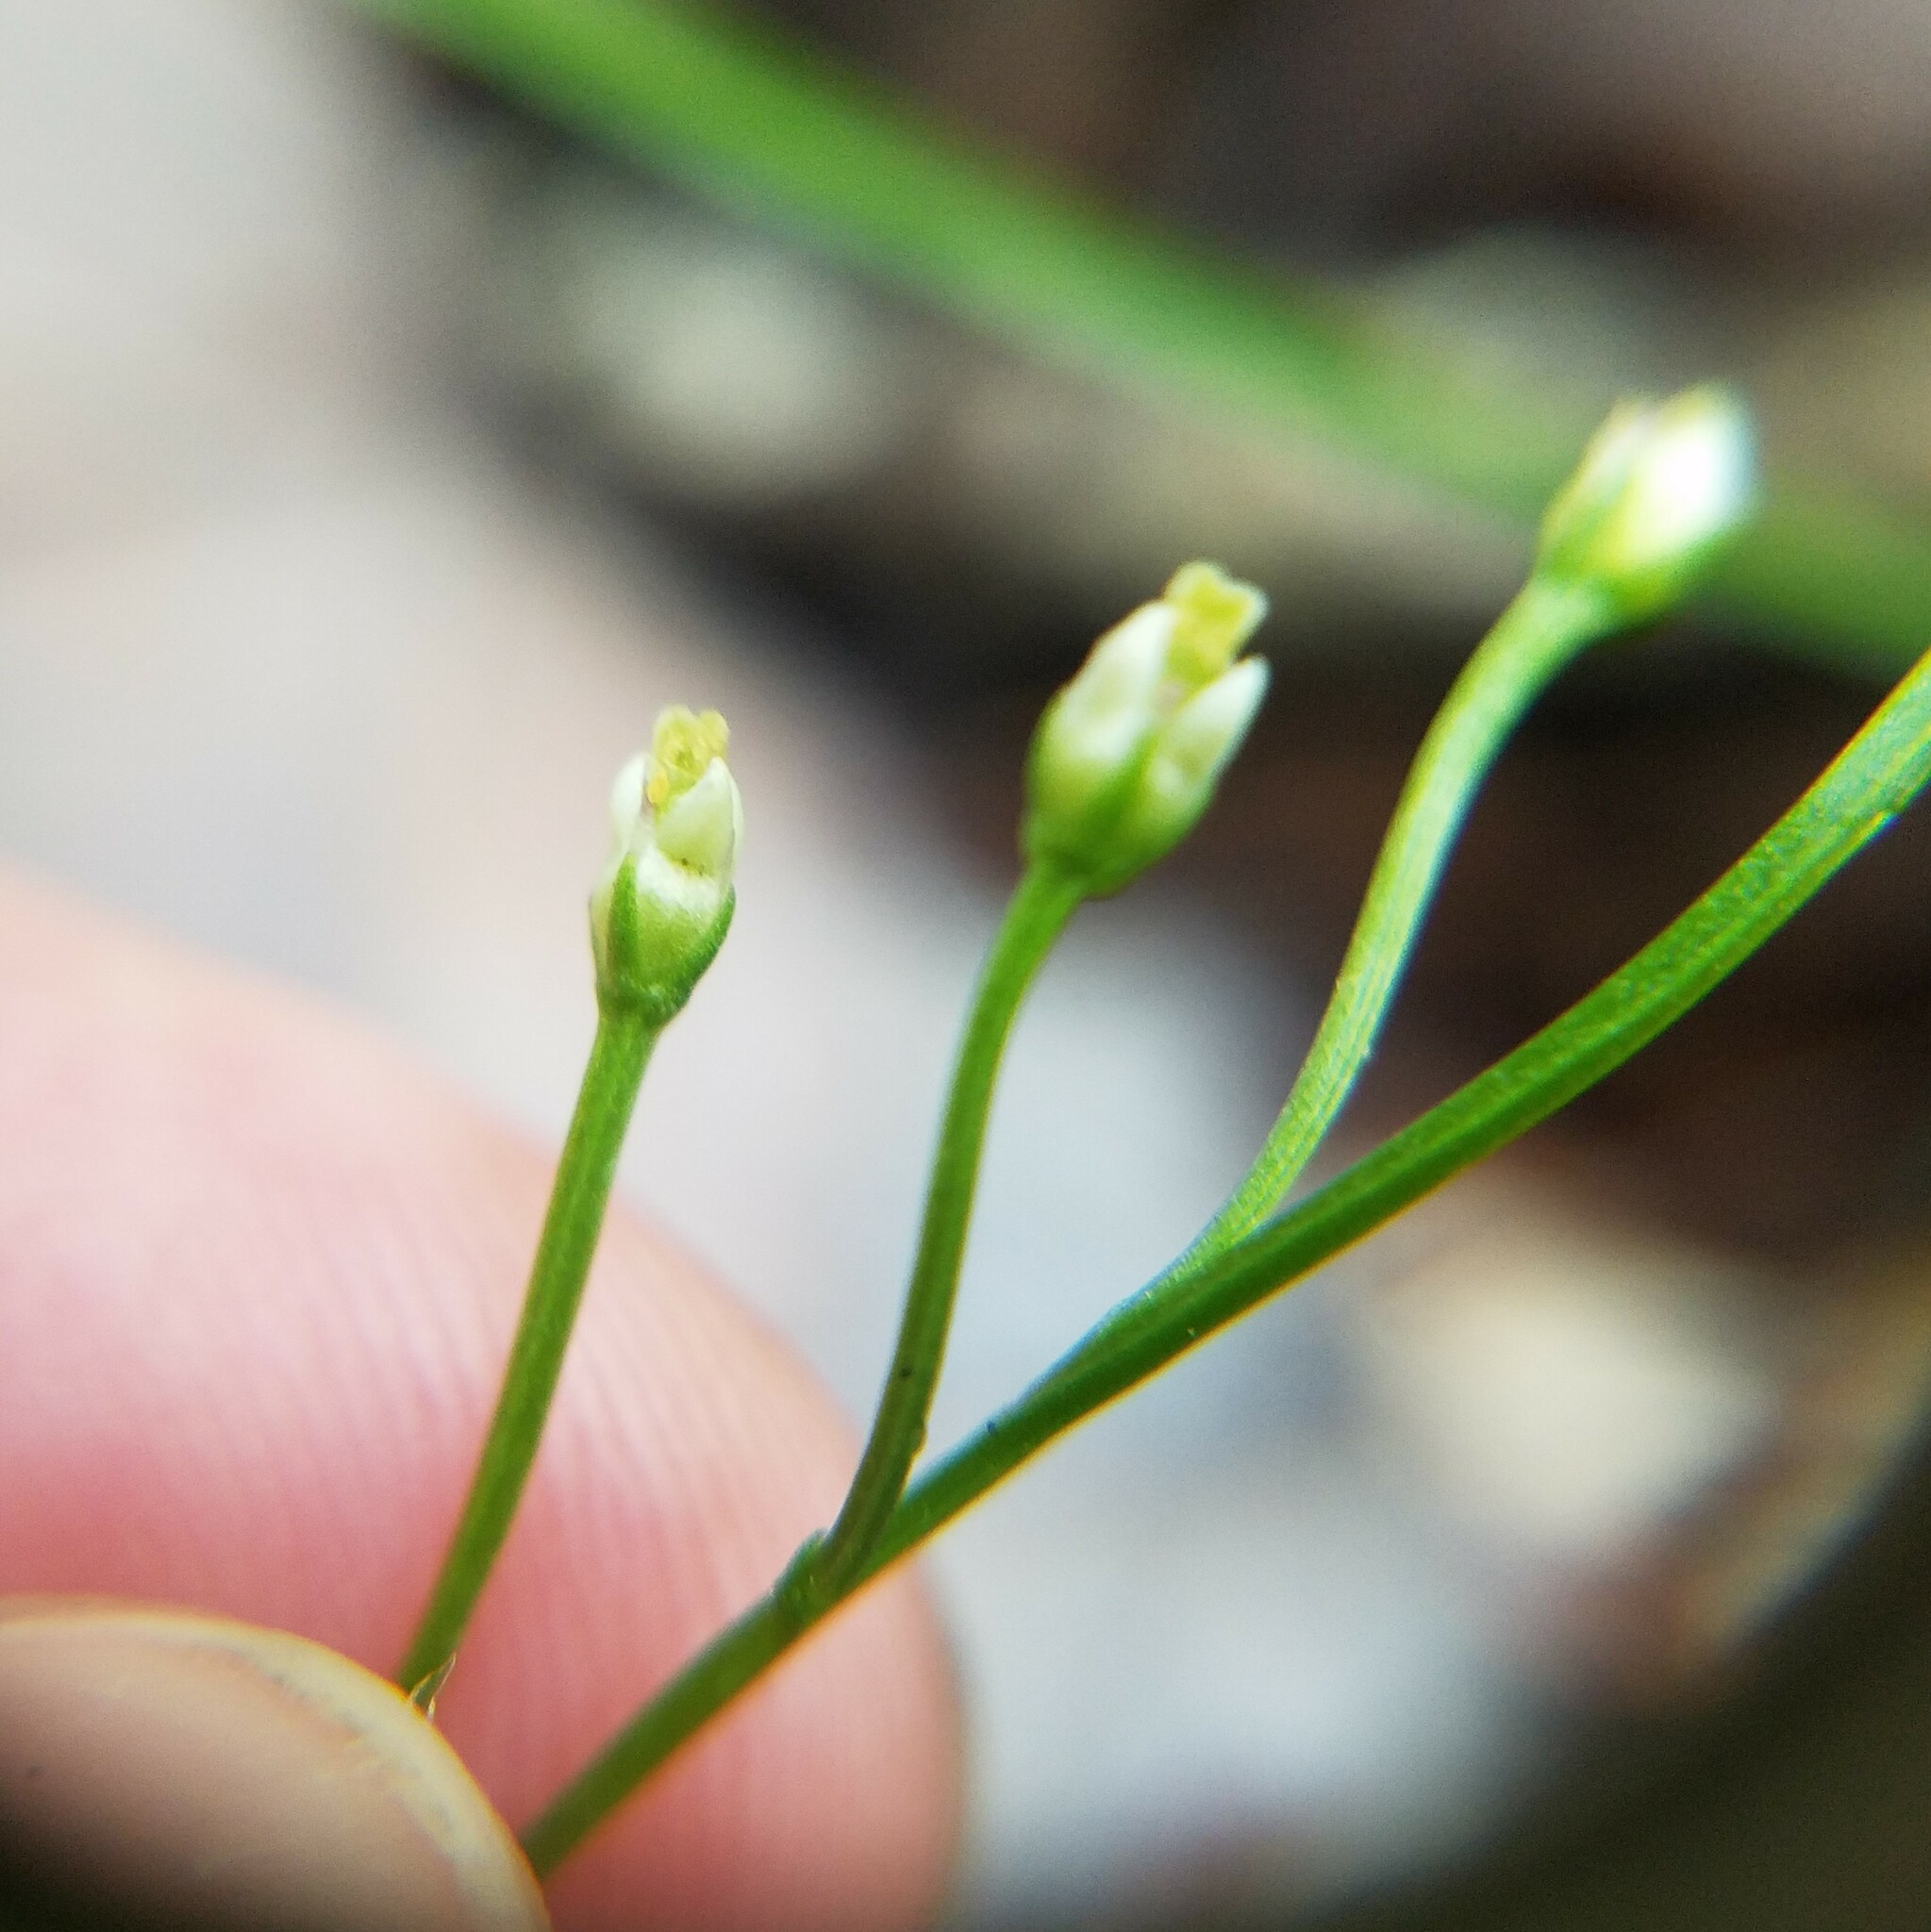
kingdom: Plantae
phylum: Tracheophyta
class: Magnoliopsida
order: Gentianales
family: Gentianaceae
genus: Bartonia
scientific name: Bartonia paniculata
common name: Branched bartonia
